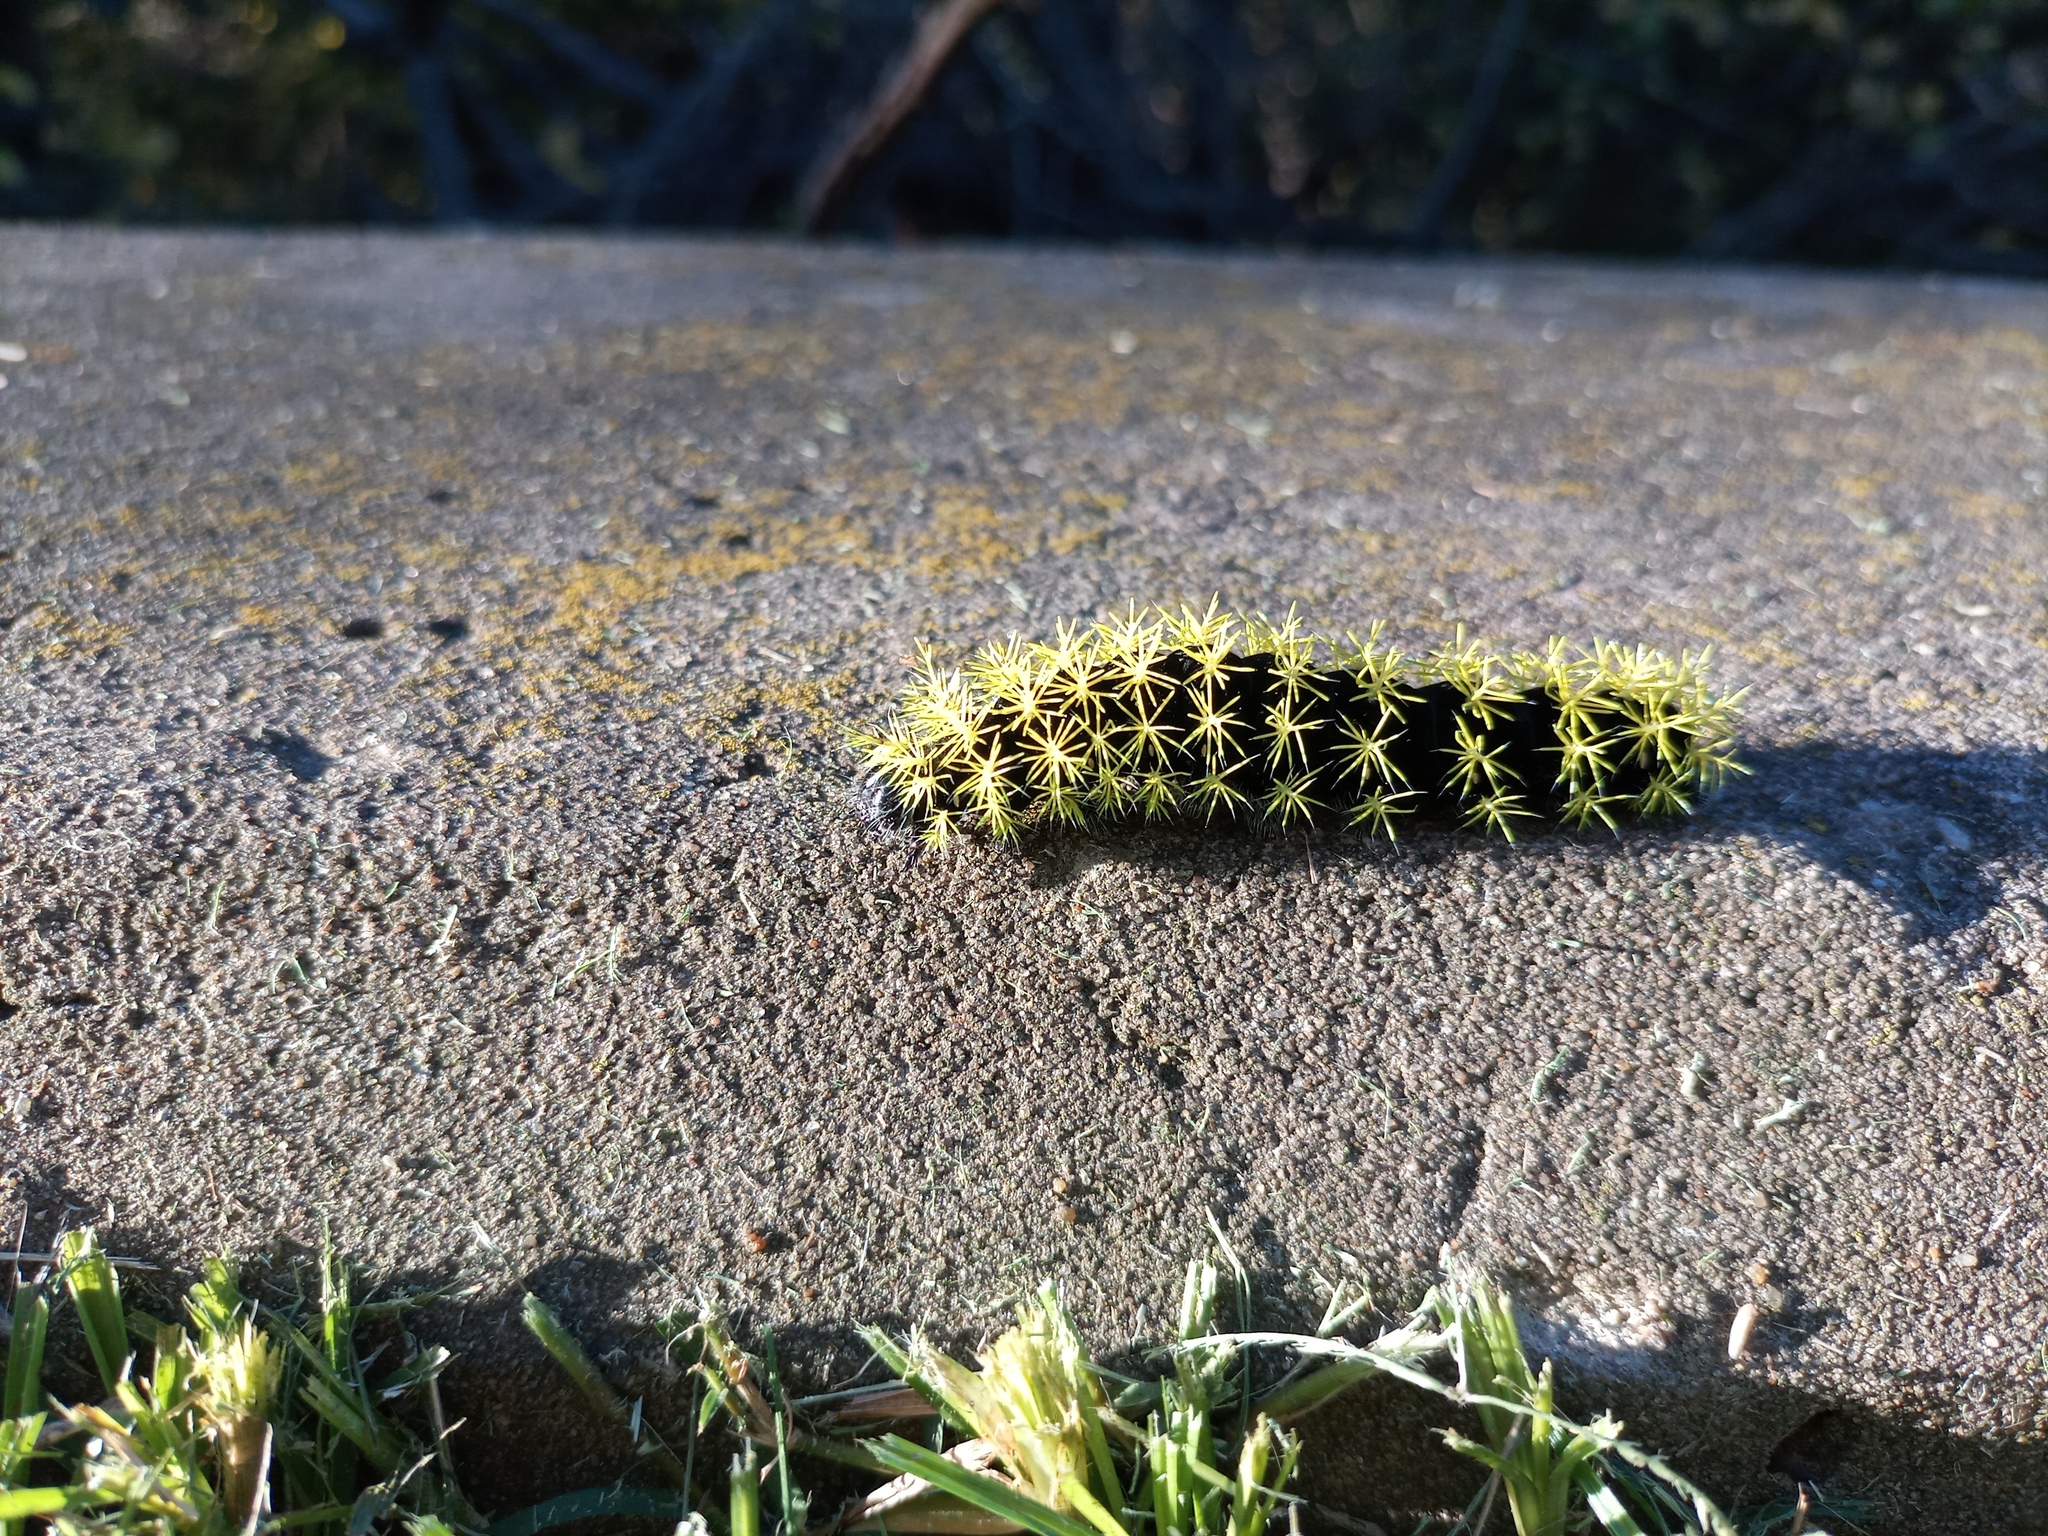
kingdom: Animalia
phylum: Arthropoda
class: Insecta
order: Lepidoptera
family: Saturniidae
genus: Leucanella
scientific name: Leucanella viridescens
